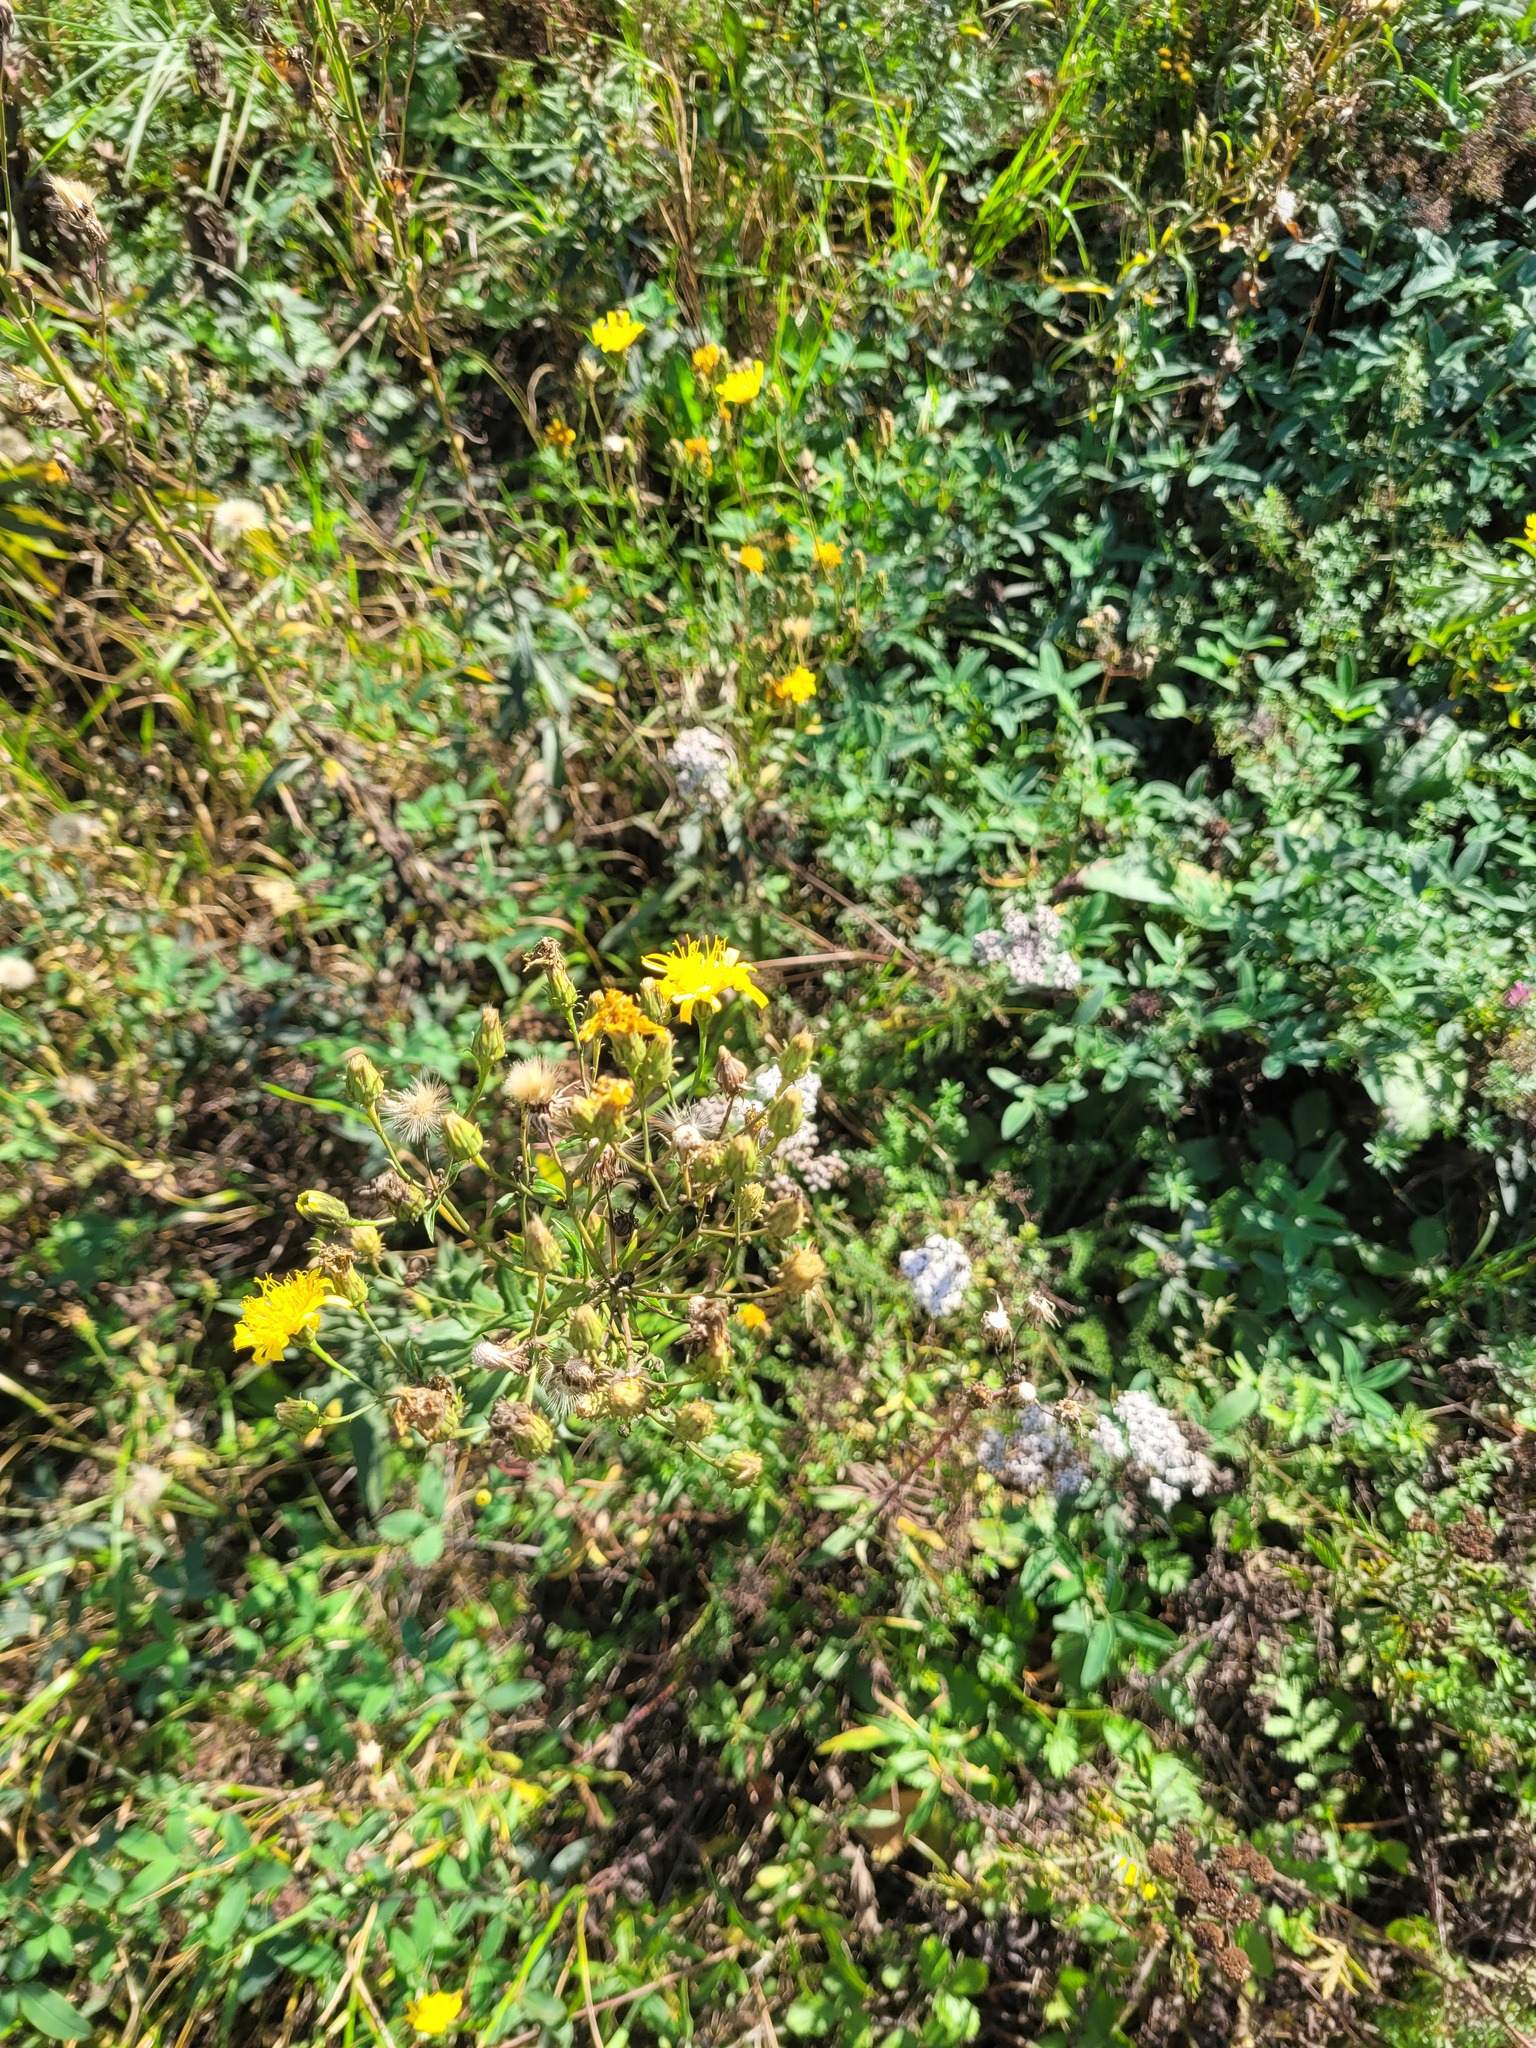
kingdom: Plantae
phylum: Tracheophyta
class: Magnoliopsida
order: Asterales
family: Asteraceae
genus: Hieracium
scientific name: Hieracium umbellatum
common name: Northern hawkweed
